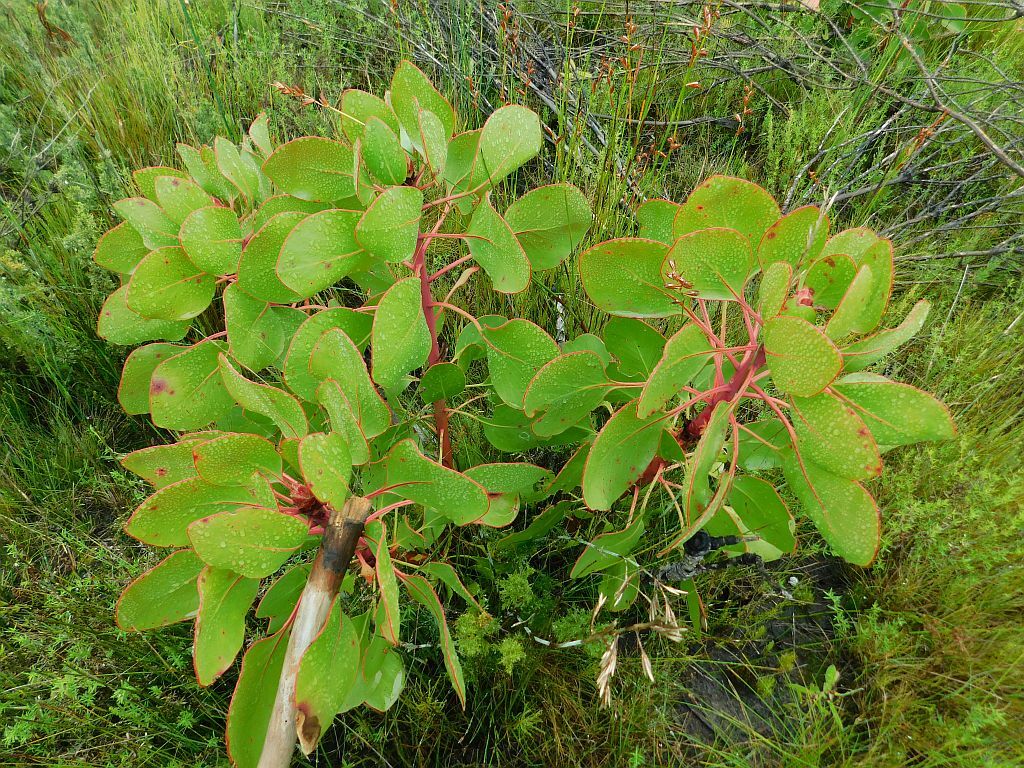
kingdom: Plantae
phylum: Tracheophyta
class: Magnoliopsida
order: Proteales
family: Proteaceae
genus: Protea
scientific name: Protea cynaroides
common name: King protea
